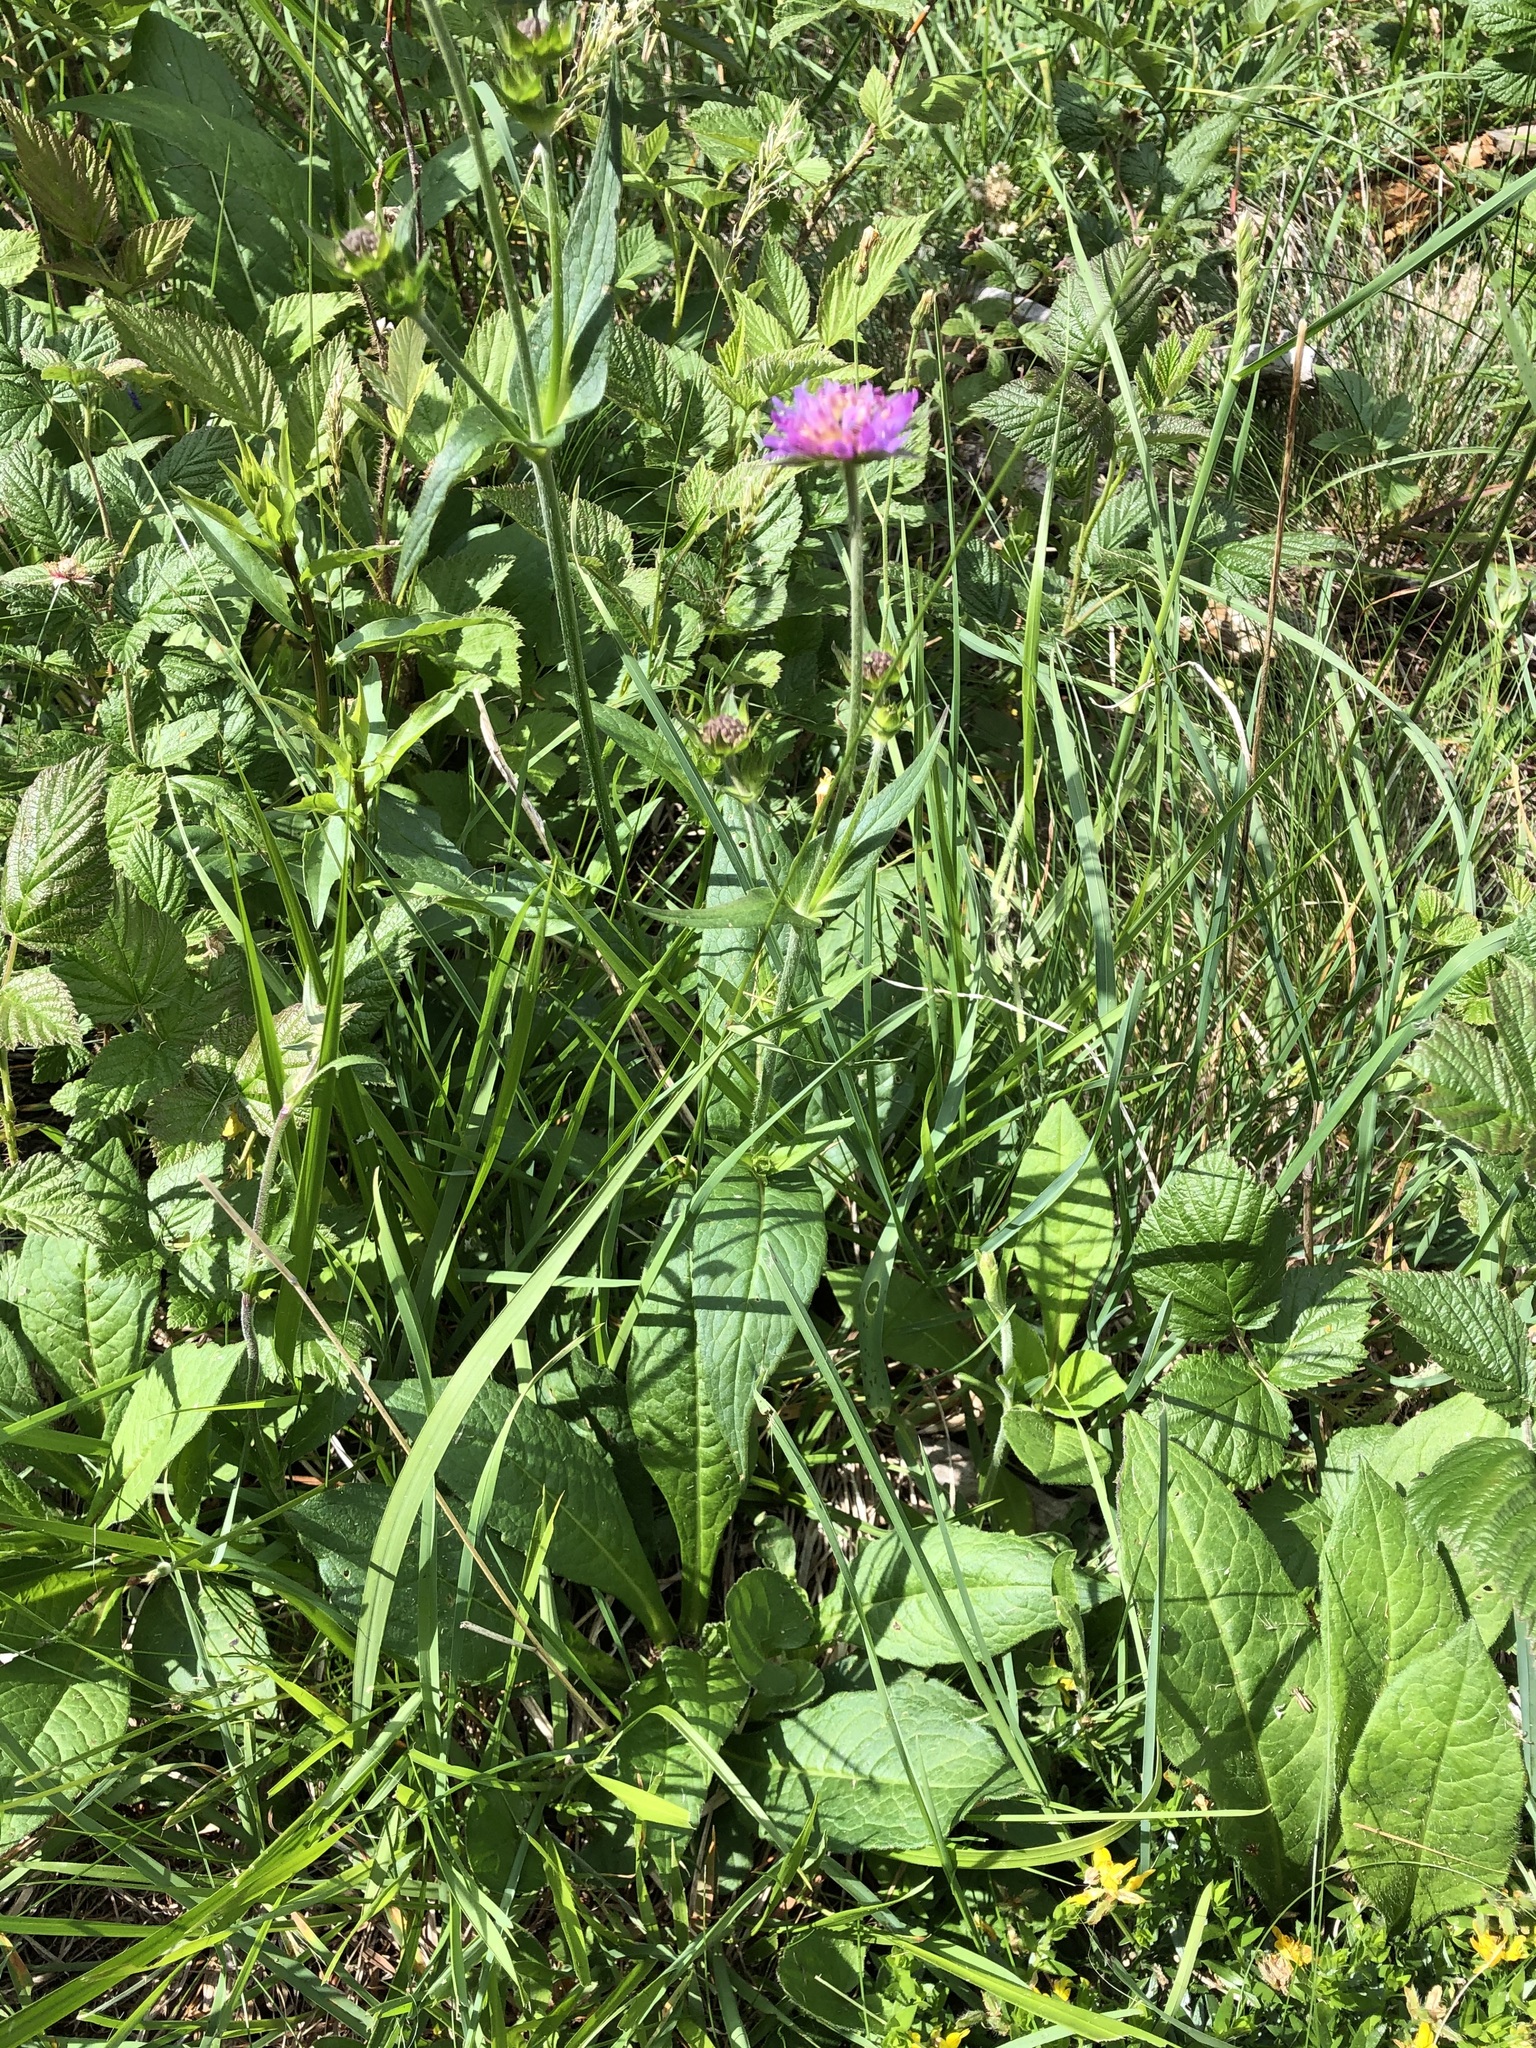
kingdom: Plantae
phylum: Tracheophyta
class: Magnoliopsida
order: Dipsacales
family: Caprifoliaceae
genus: Knautia
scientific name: Knautia dipsacifolia
